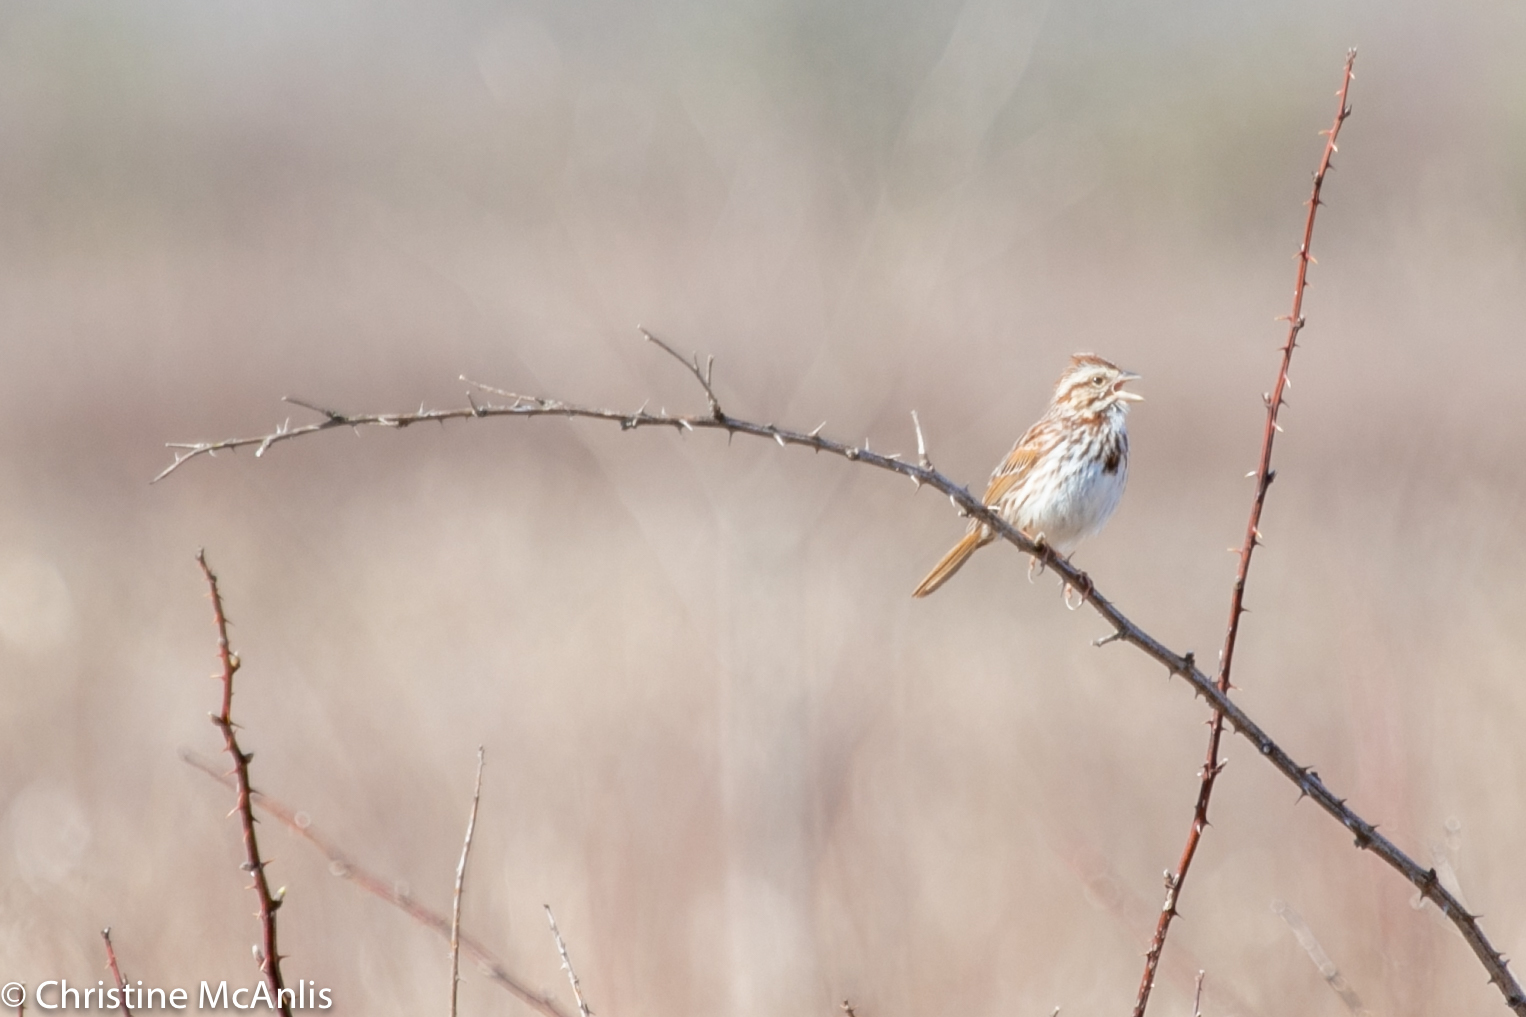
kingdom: Animalia
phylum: Chordata
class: Aves
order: Passeriformes
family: Passerellidae
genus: Melospiza
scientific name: Melospiza melodia
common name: Song sparrow
